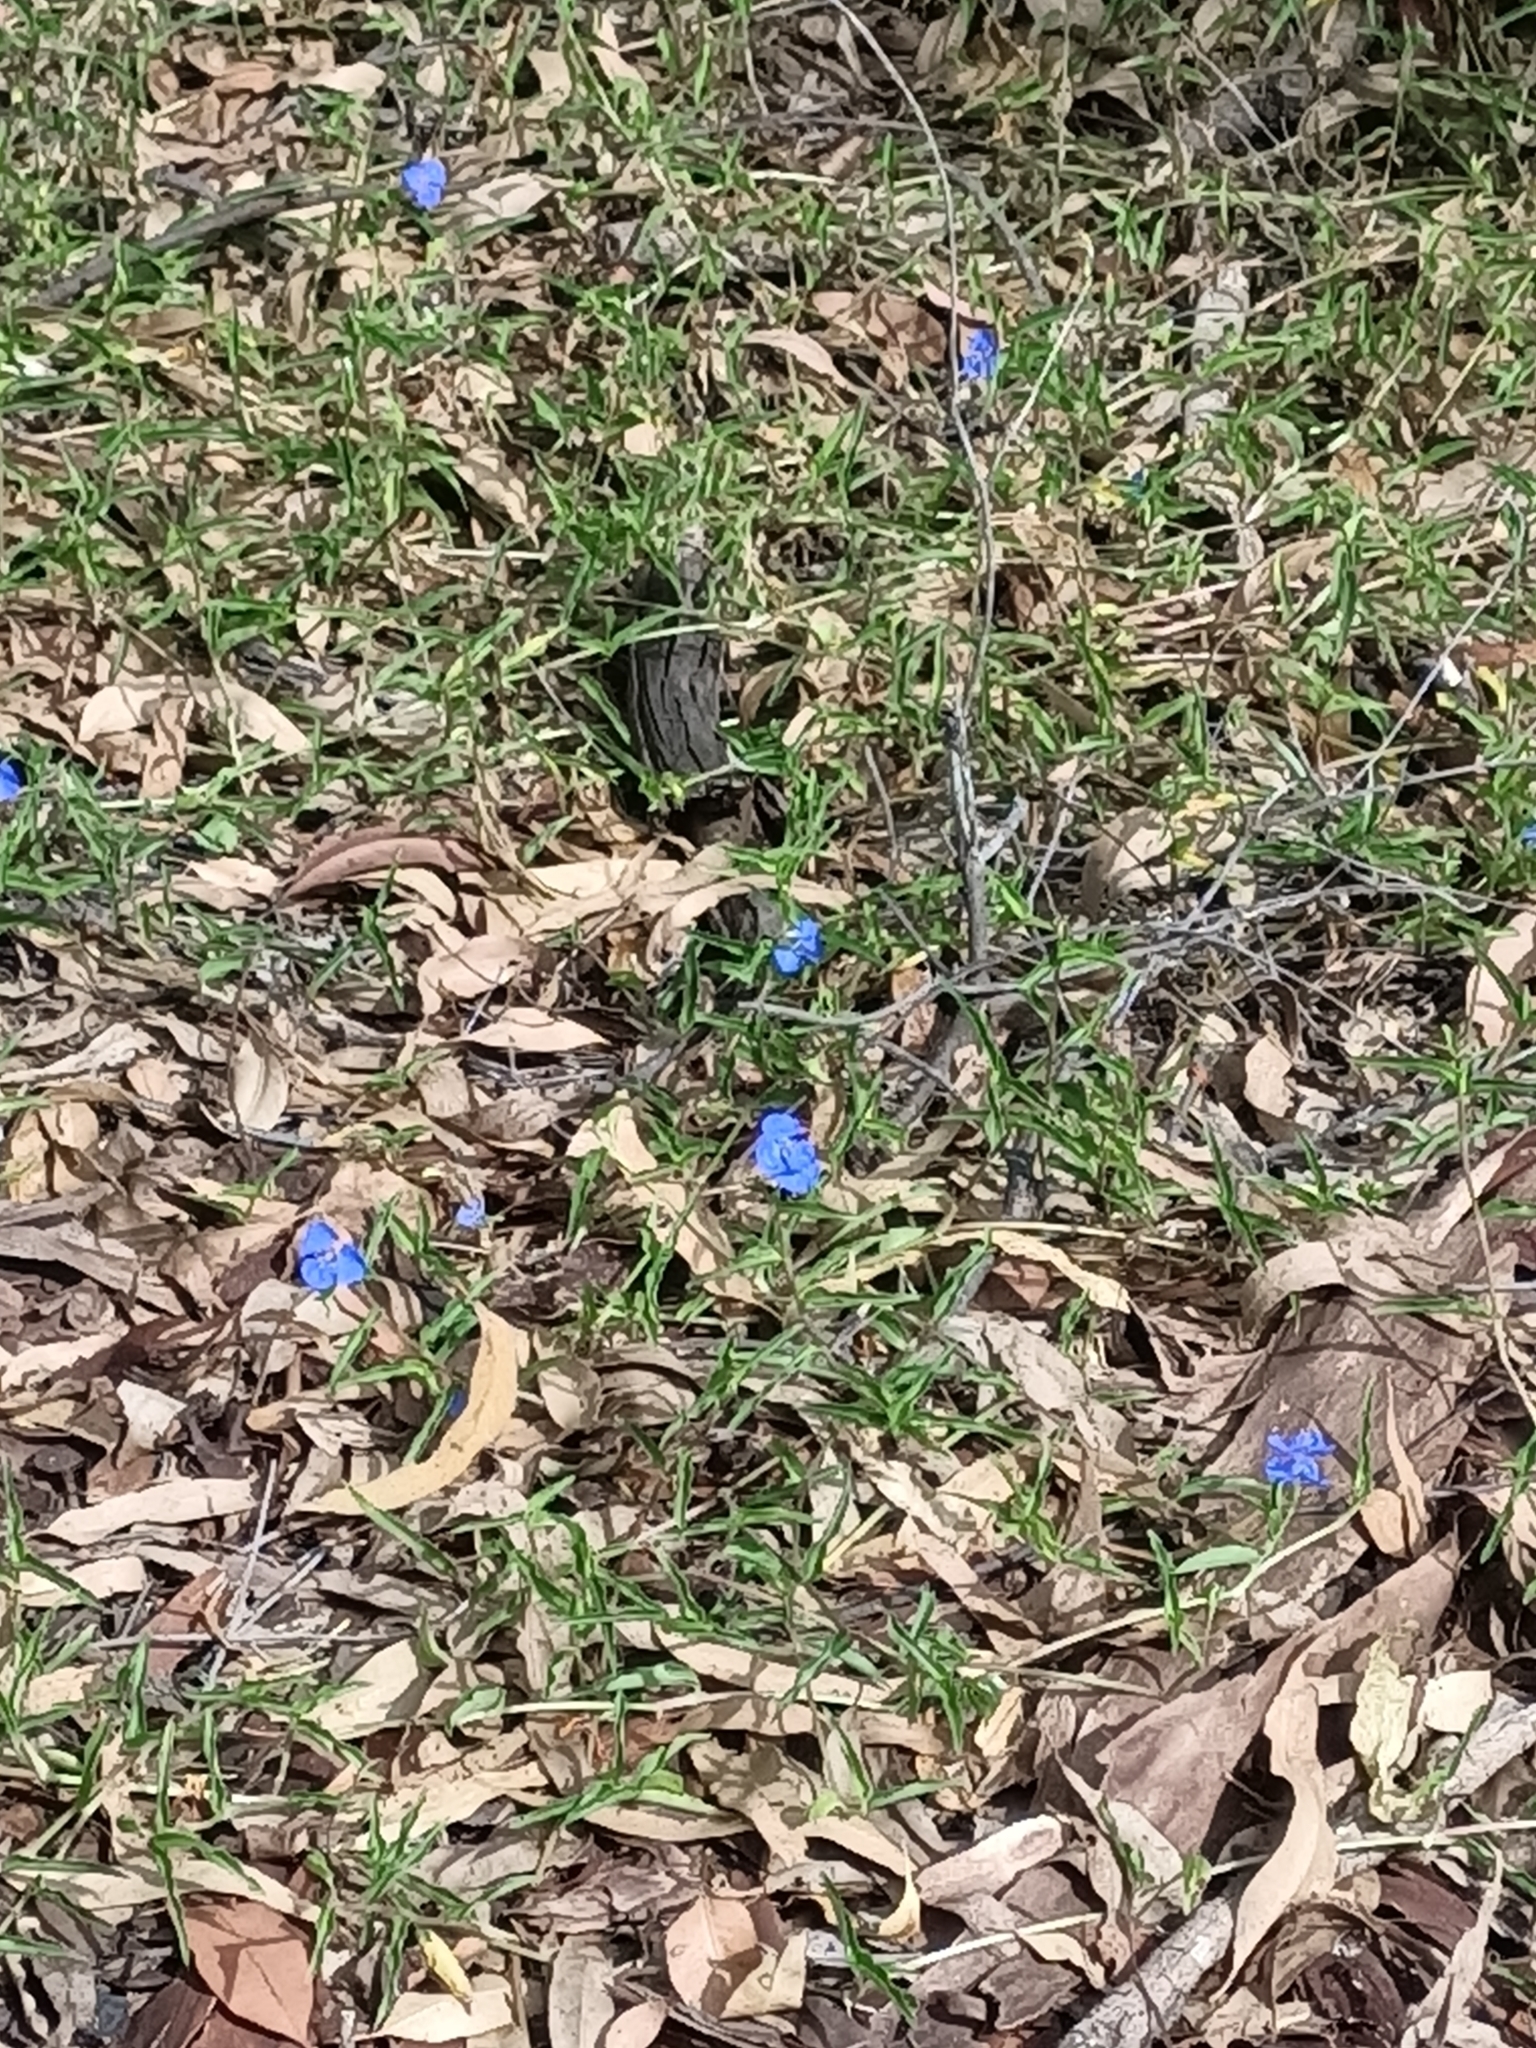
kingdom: Plantae
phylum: Tracheophyta
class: Liliopsida
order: Commelinales
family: Commelinaceae
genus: Commelina
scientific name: Commelina cyanea
